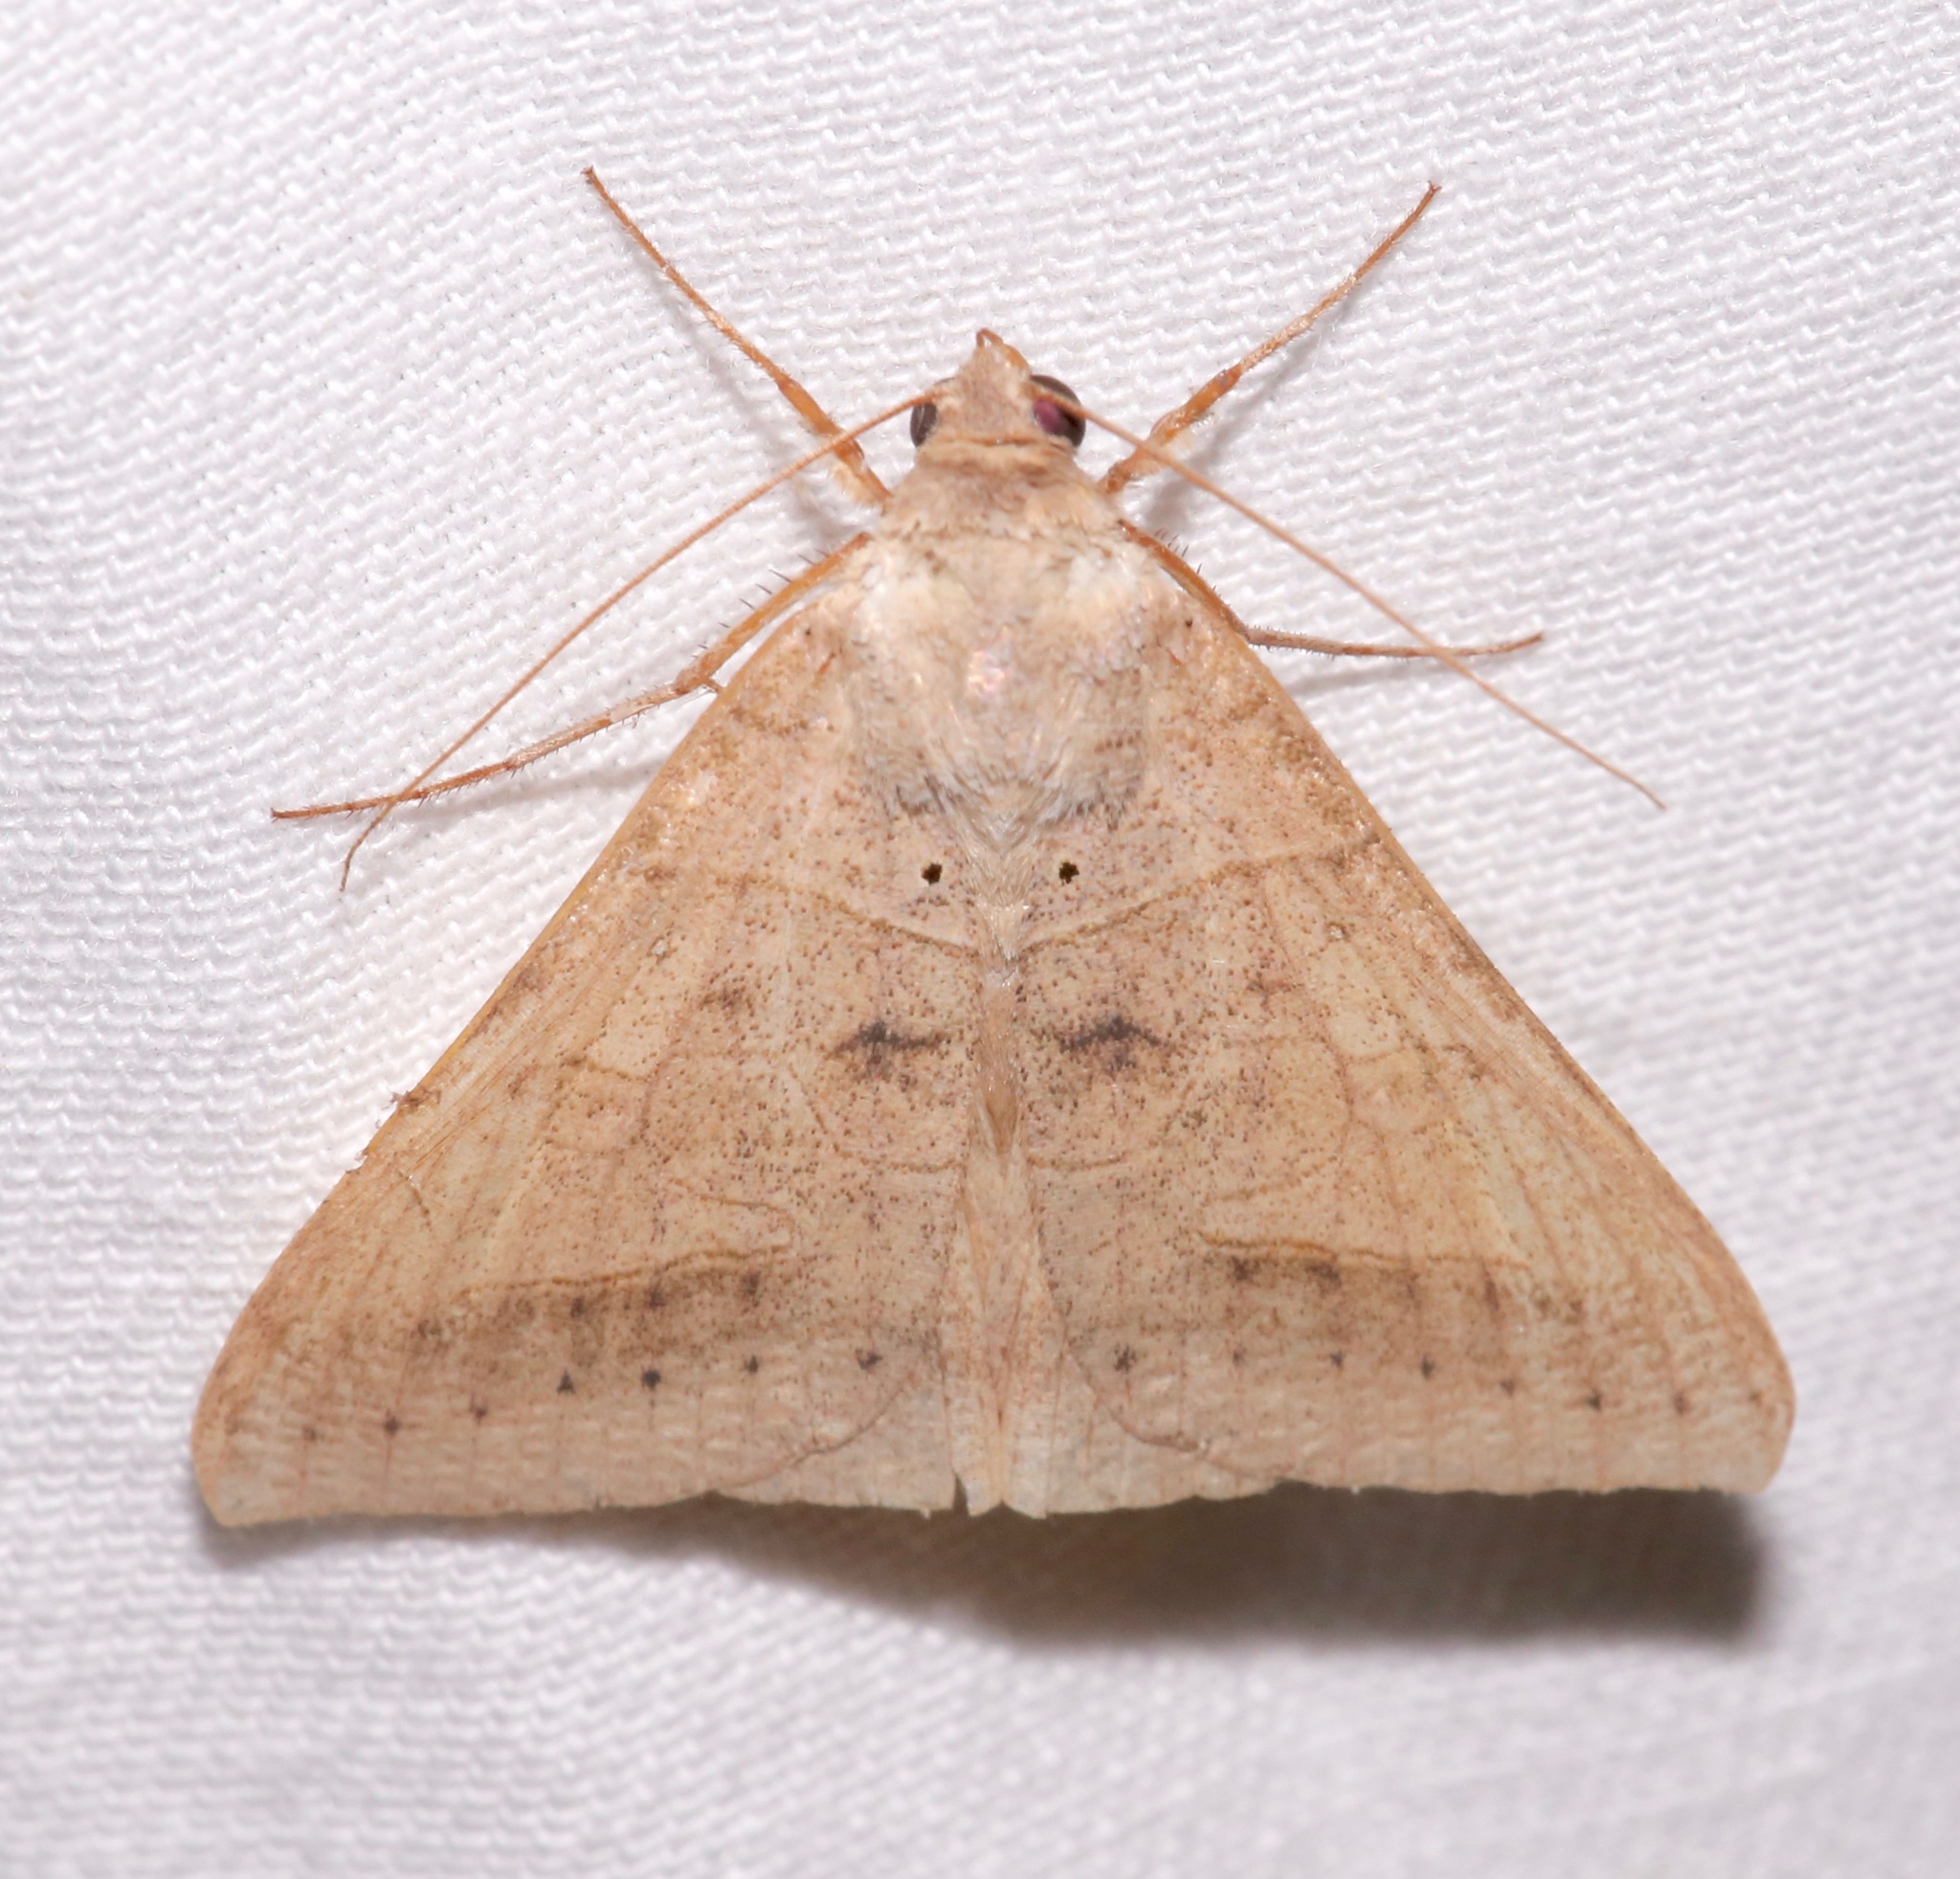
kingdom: Animalia
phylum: Arthropoda
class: Insecta
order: Lepidoptera
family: Erebidae
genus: Mocis
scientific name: Mocis marcida
